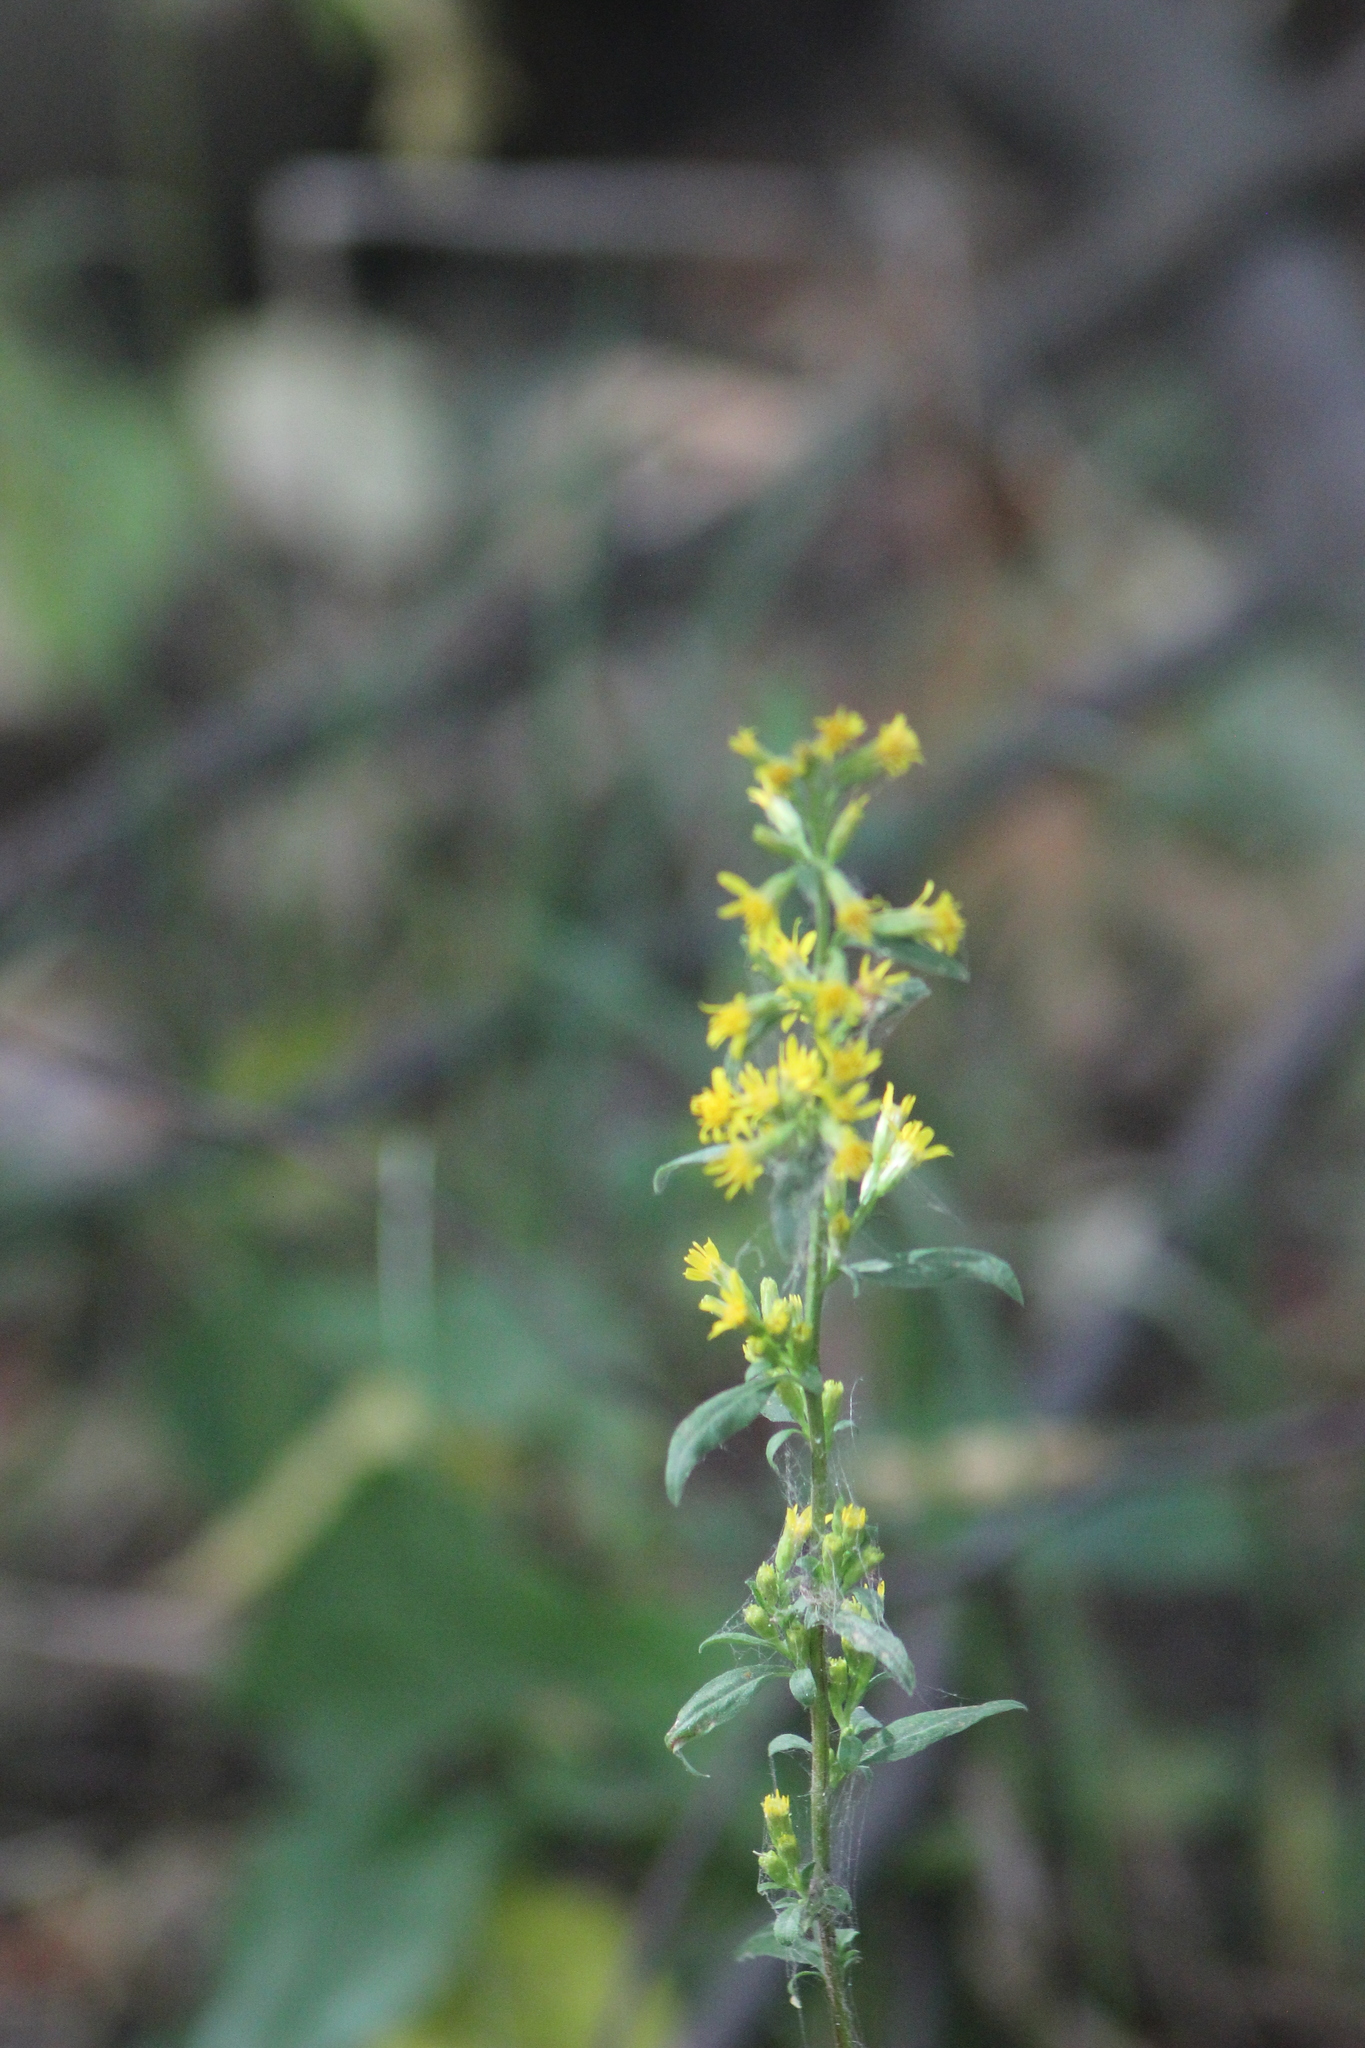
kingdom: Plantae
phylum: Tracheophyta
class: Magnoliopsida
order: Asterales
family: Asteraceae
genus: Solidago
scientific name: Solidago virgaurea
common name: Goldenrod
